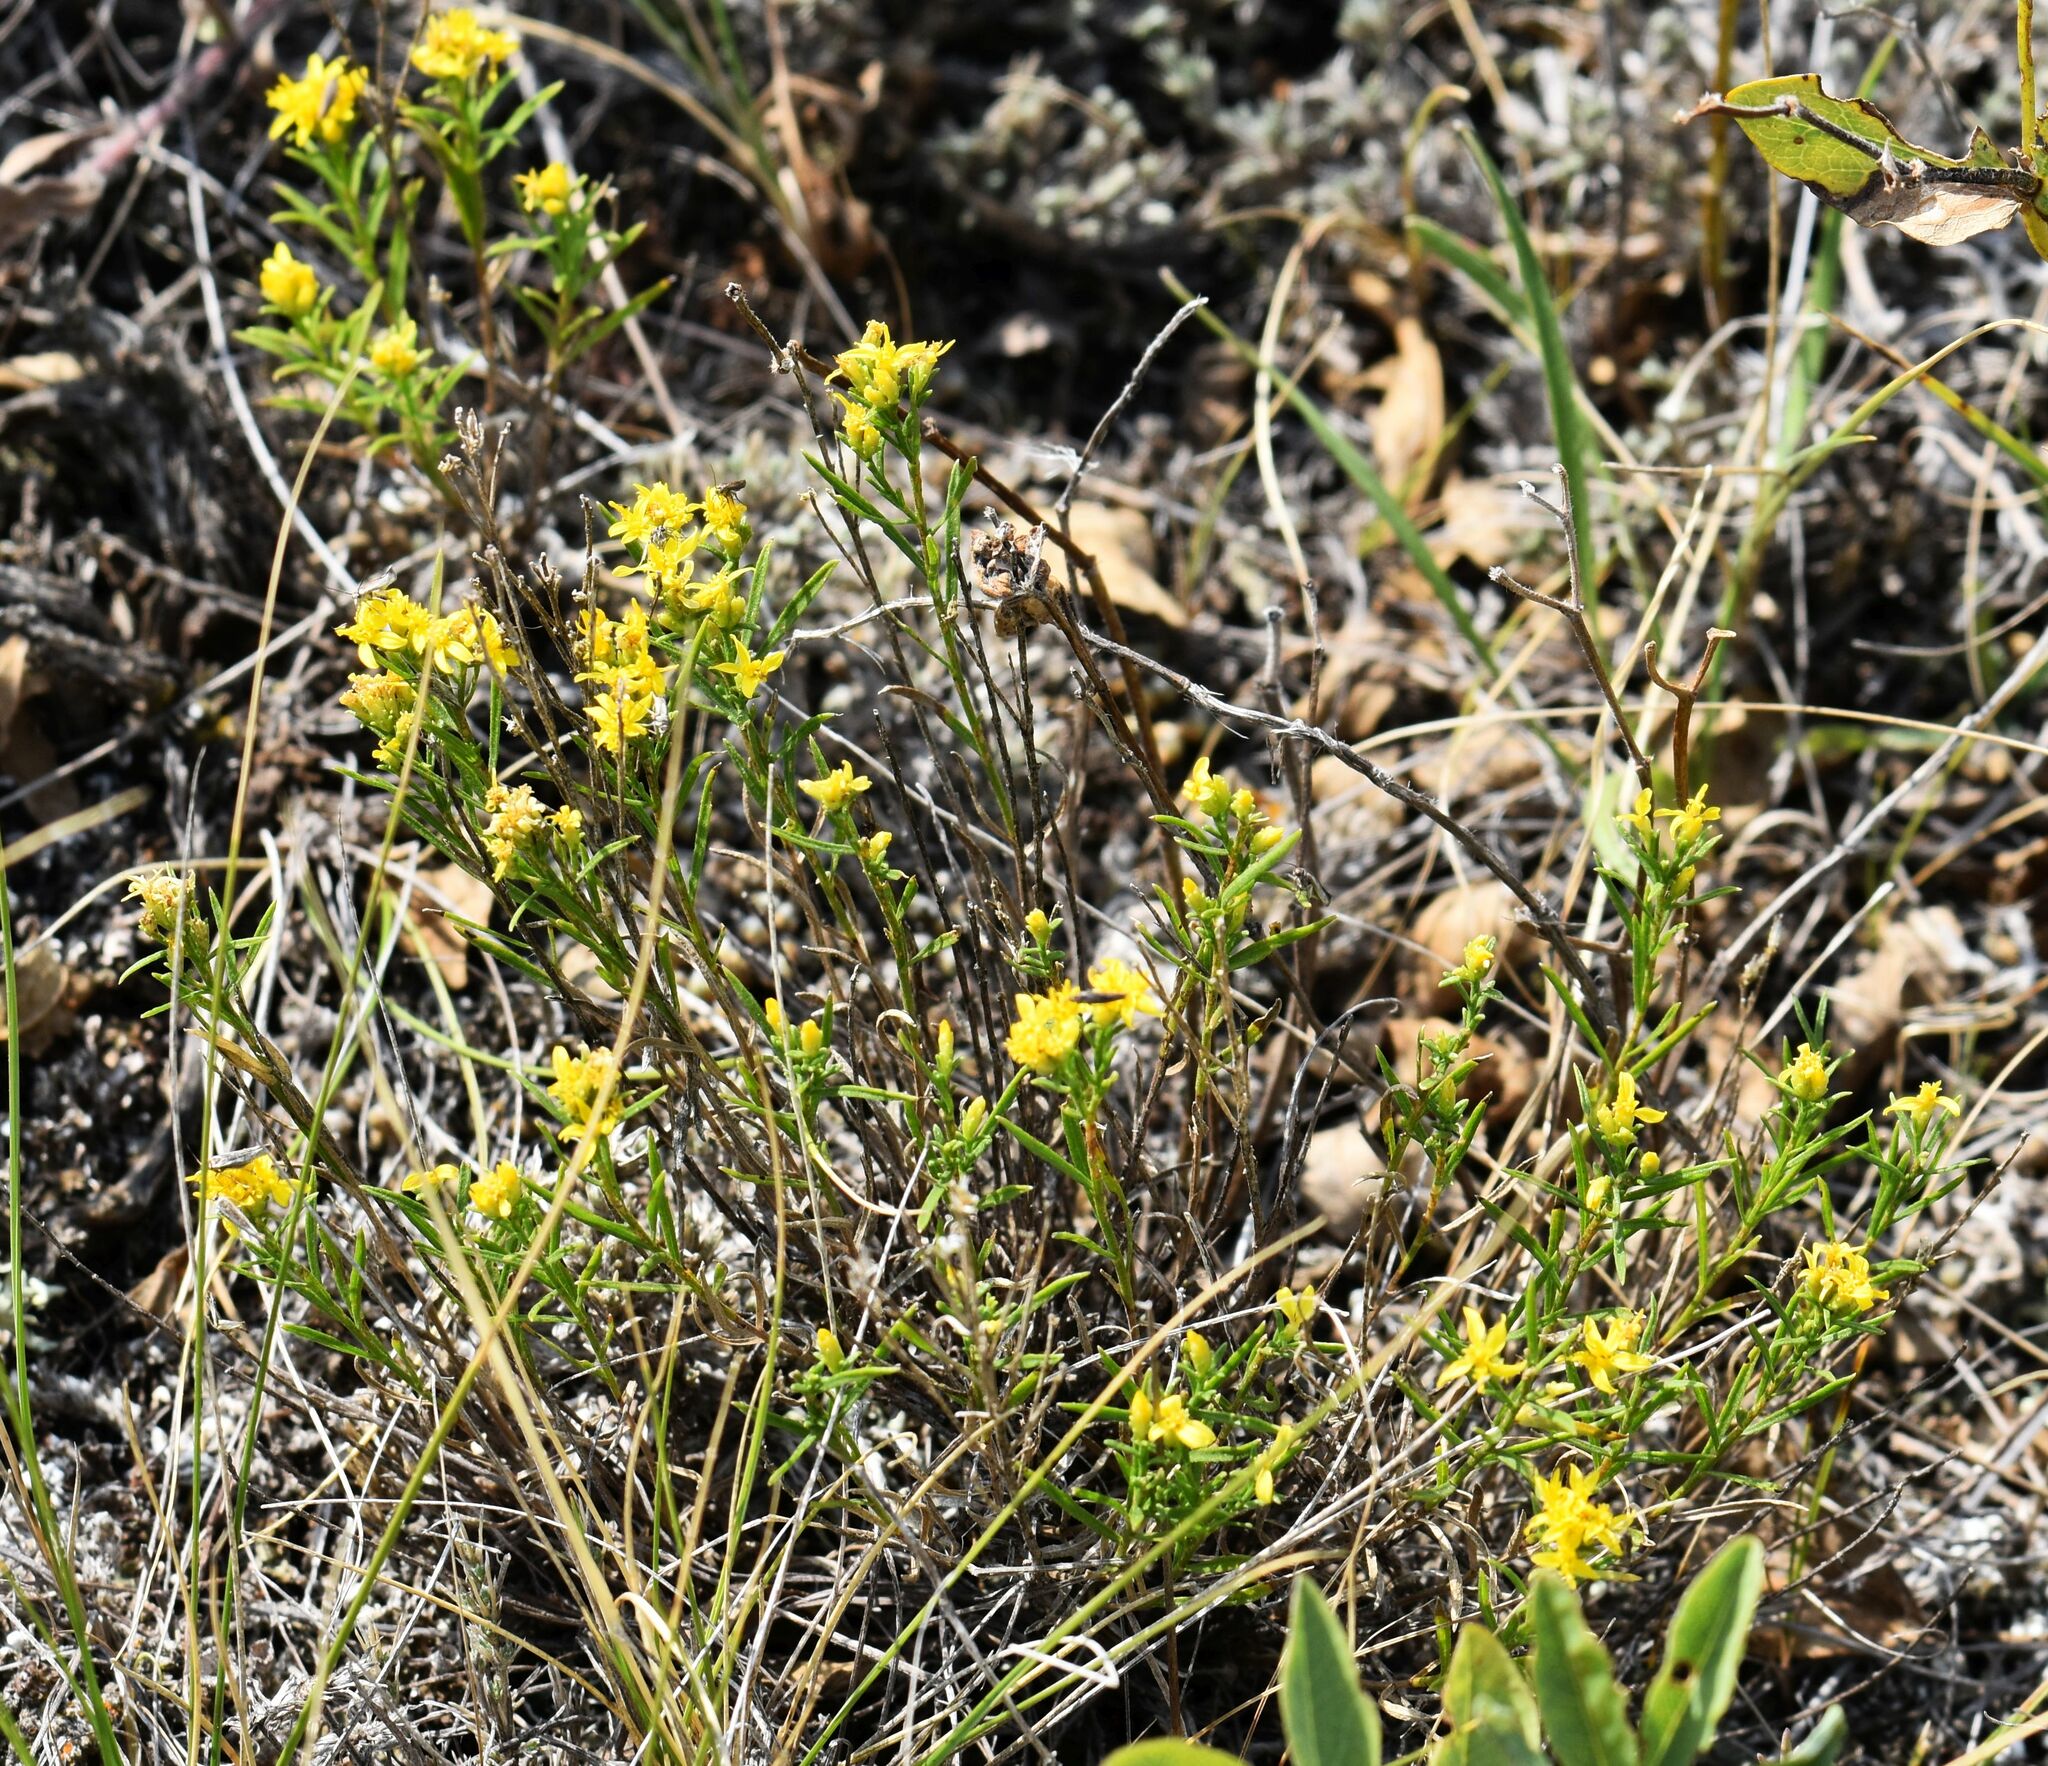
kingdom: Plantae
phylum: Tracheophyta
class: Magnoliopsida
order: Asterales
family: Asteraceae
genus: Gutierrezia
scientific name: Gutierrezia sarothrae
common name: Broom snakeweed
